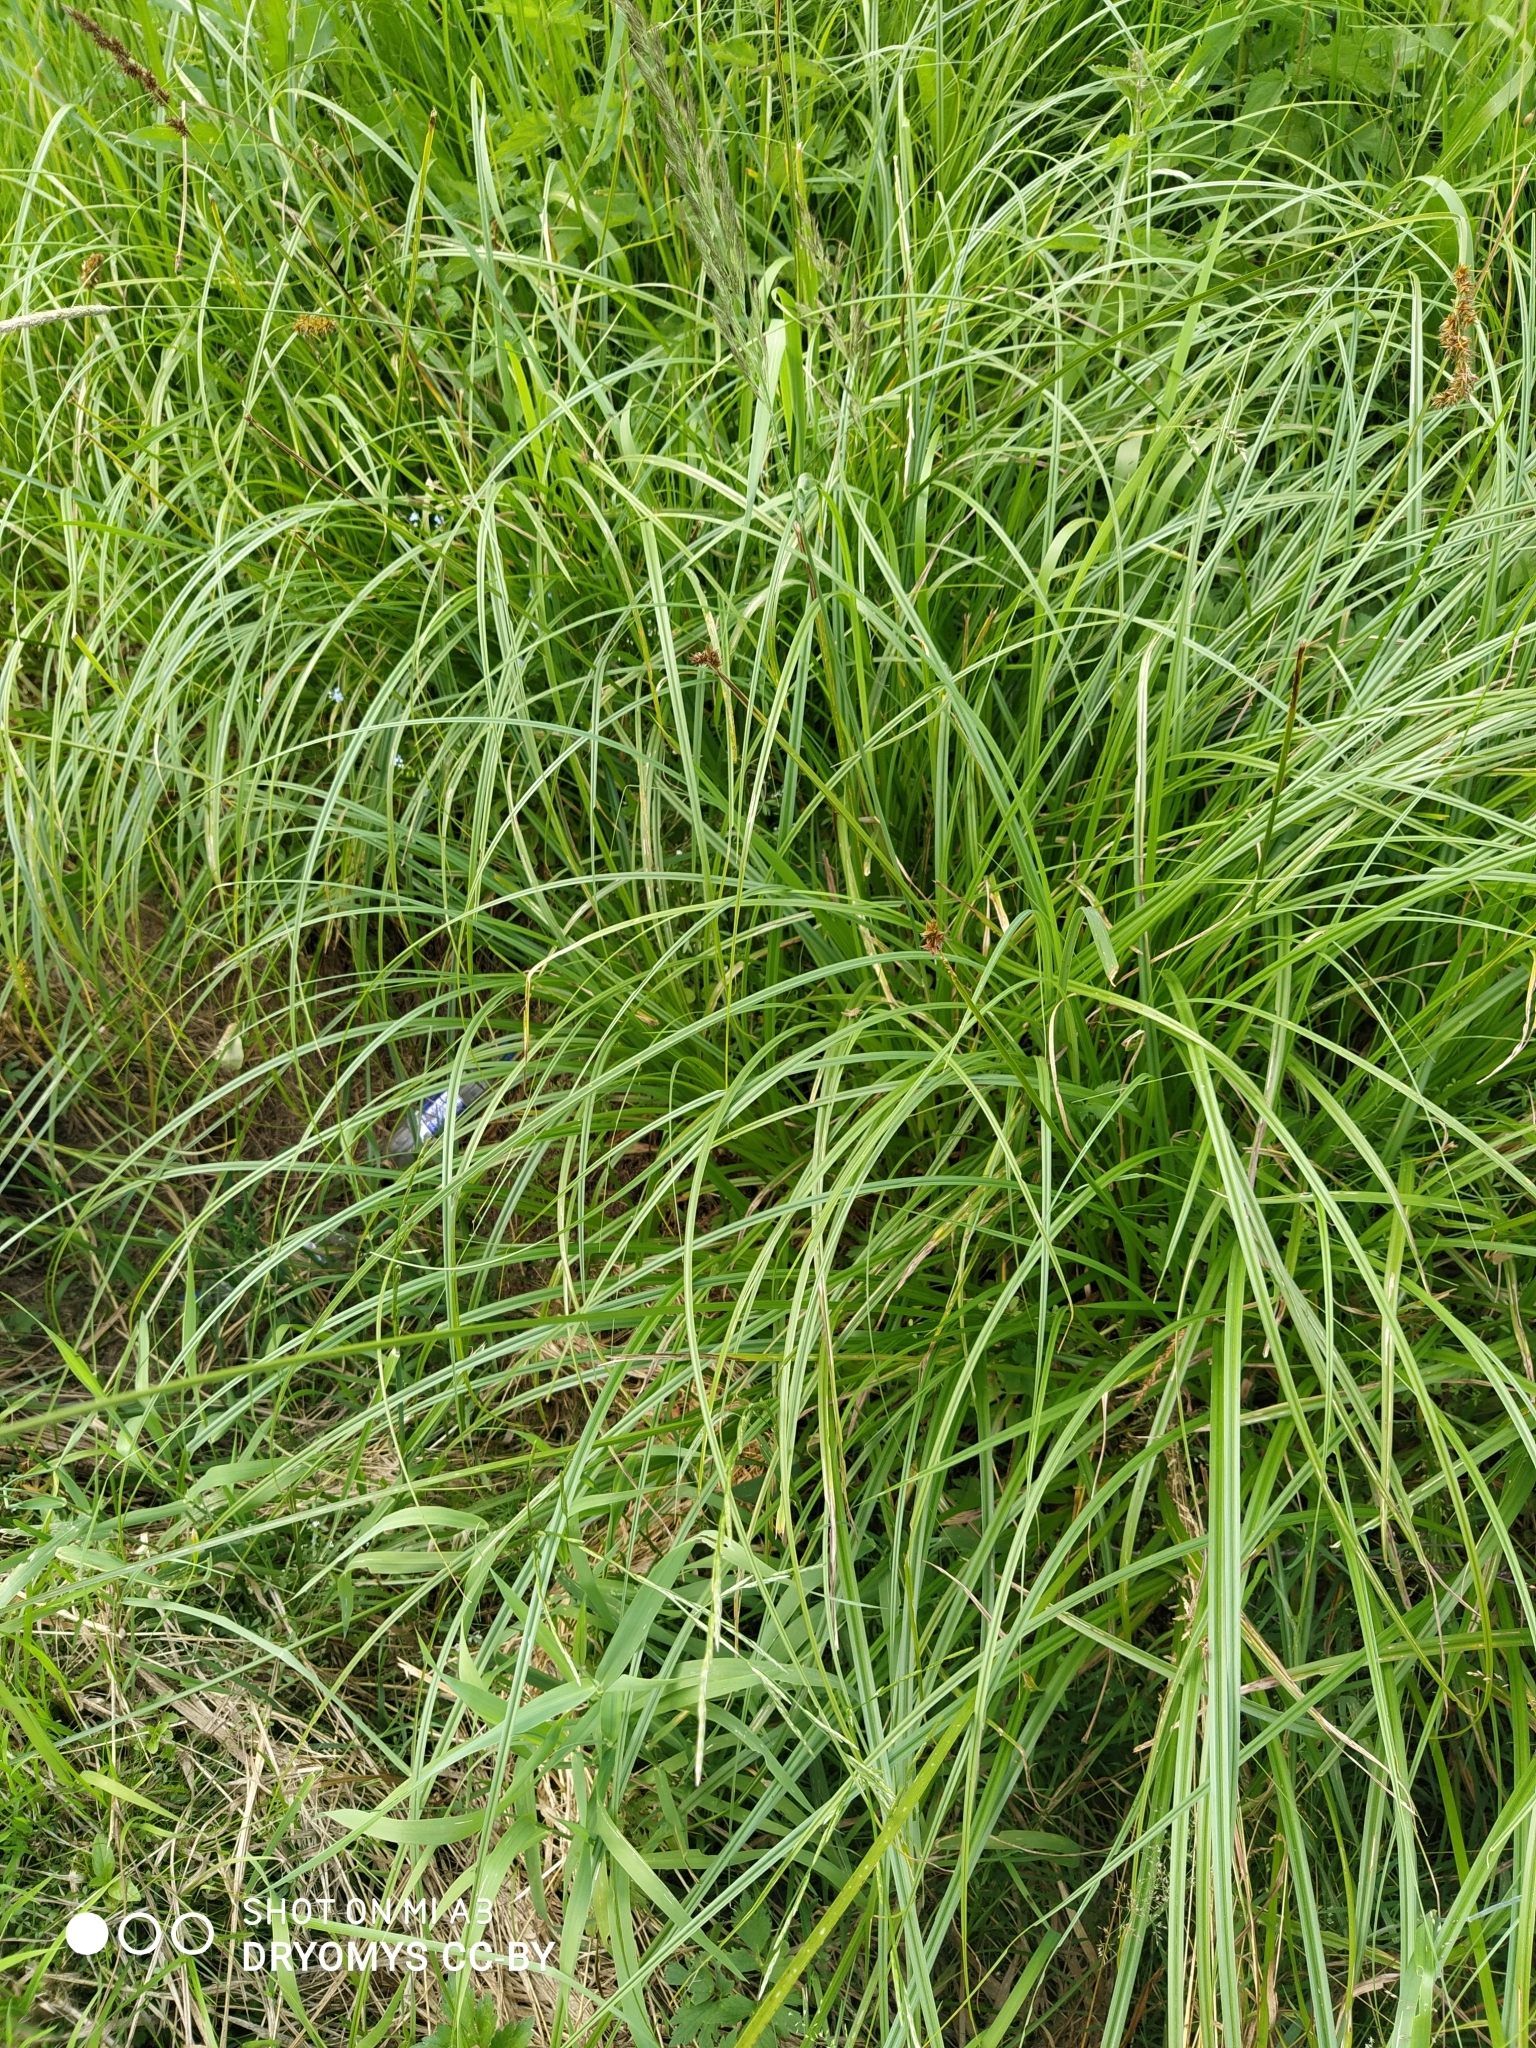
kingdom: Plantae
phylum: Tracheophyta
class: Liliopsida
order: Poales
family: Cyperaceae
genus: Carex
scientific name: Carex vulpina
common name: True fox-sedge
